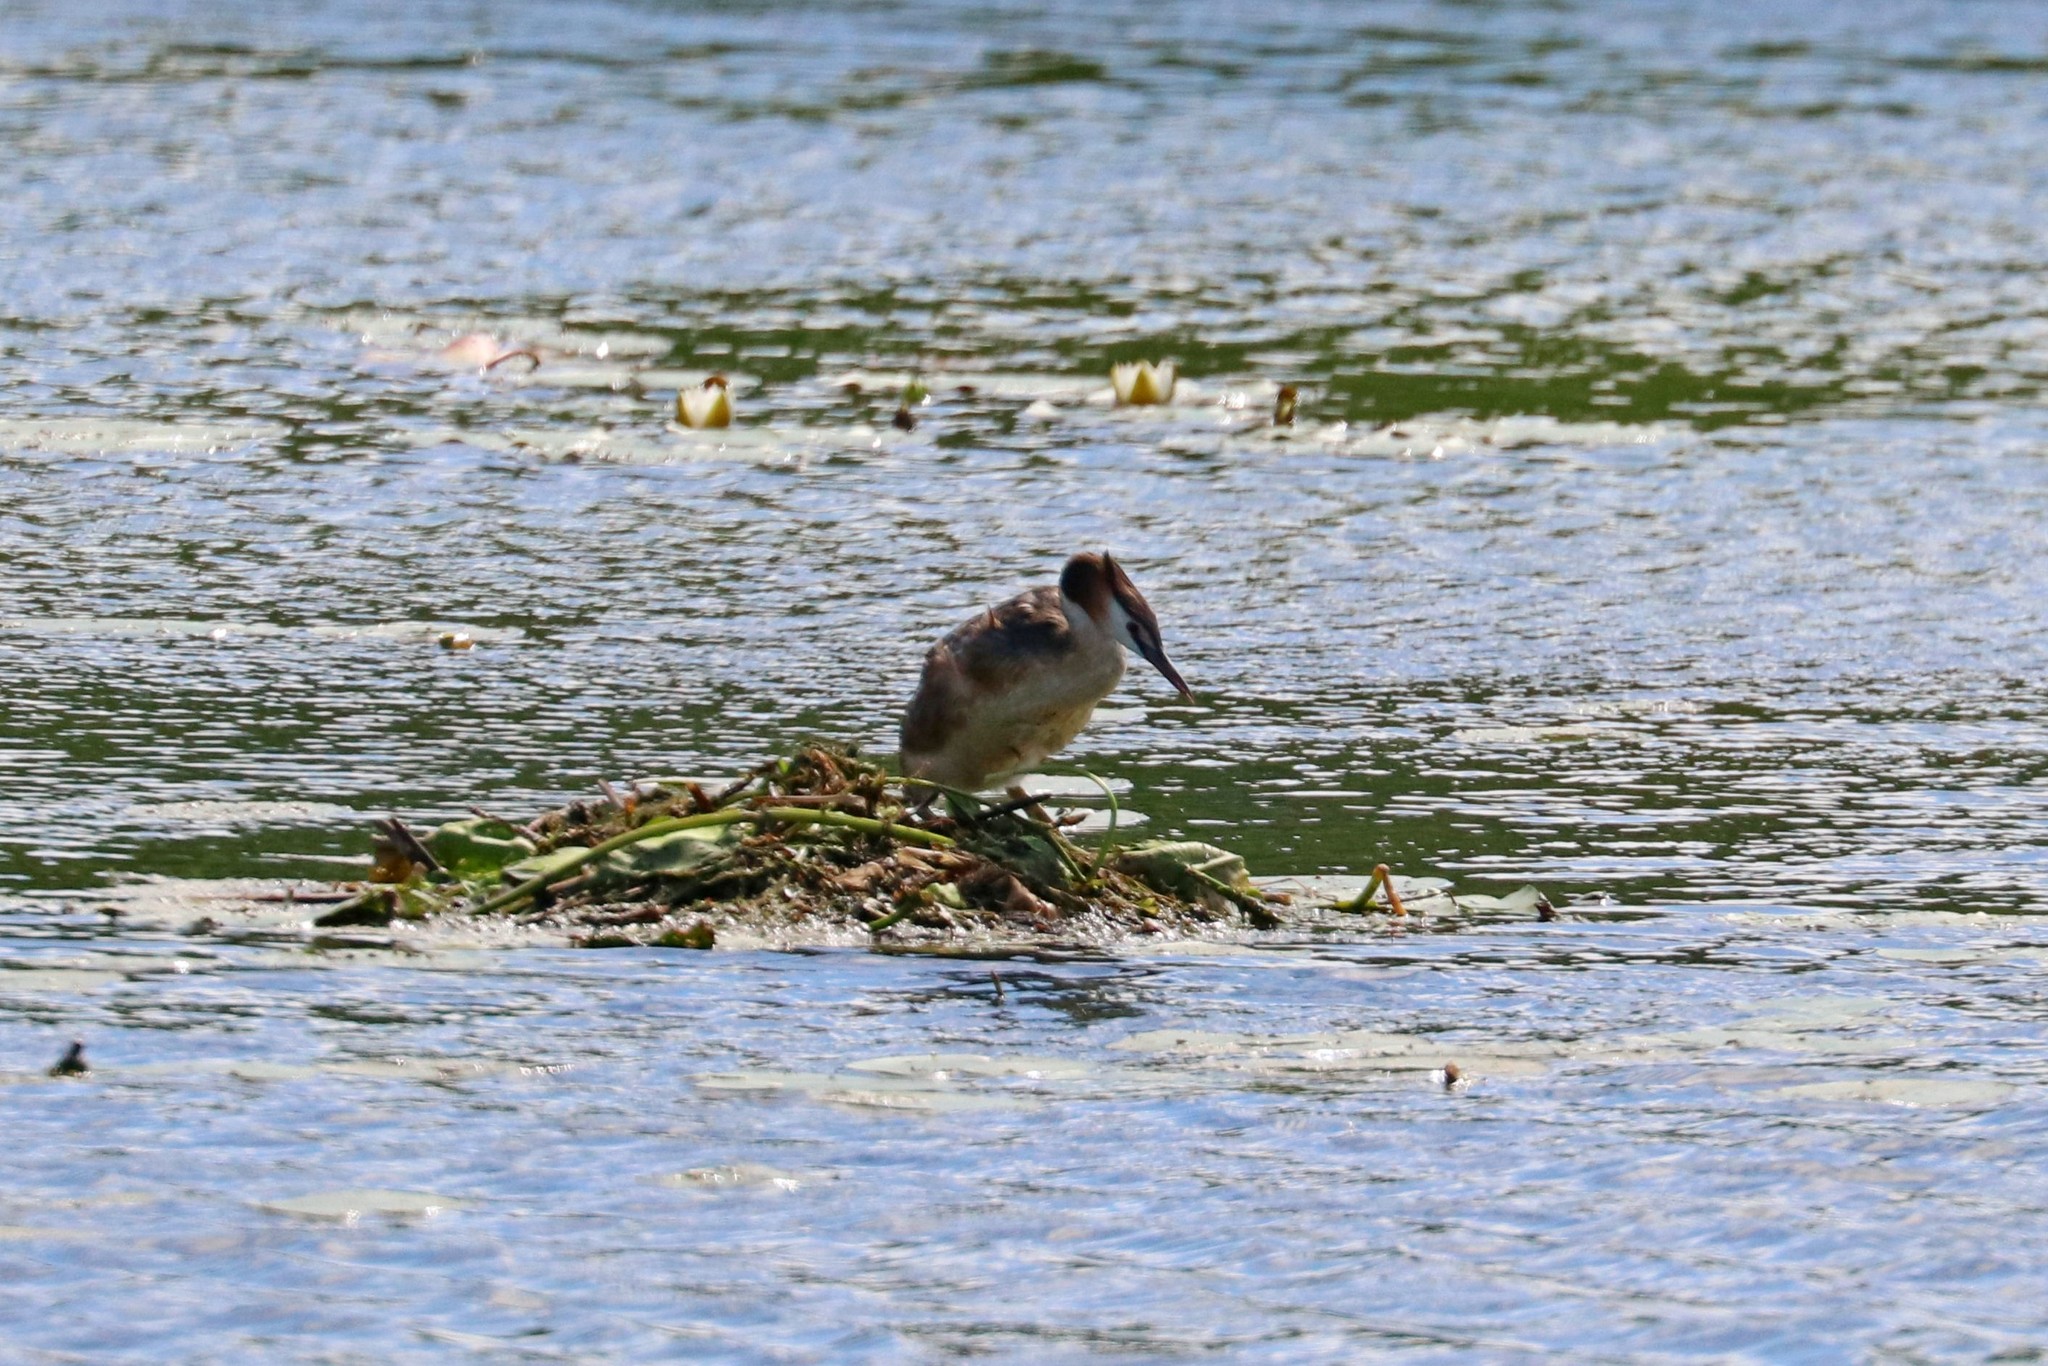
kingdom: Animalia
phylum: Chordata
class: Aves
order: Podicipediformes
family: Podicipedidae
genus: Podiceps
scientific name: Podiceps cristatus
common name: Great crested grebe
